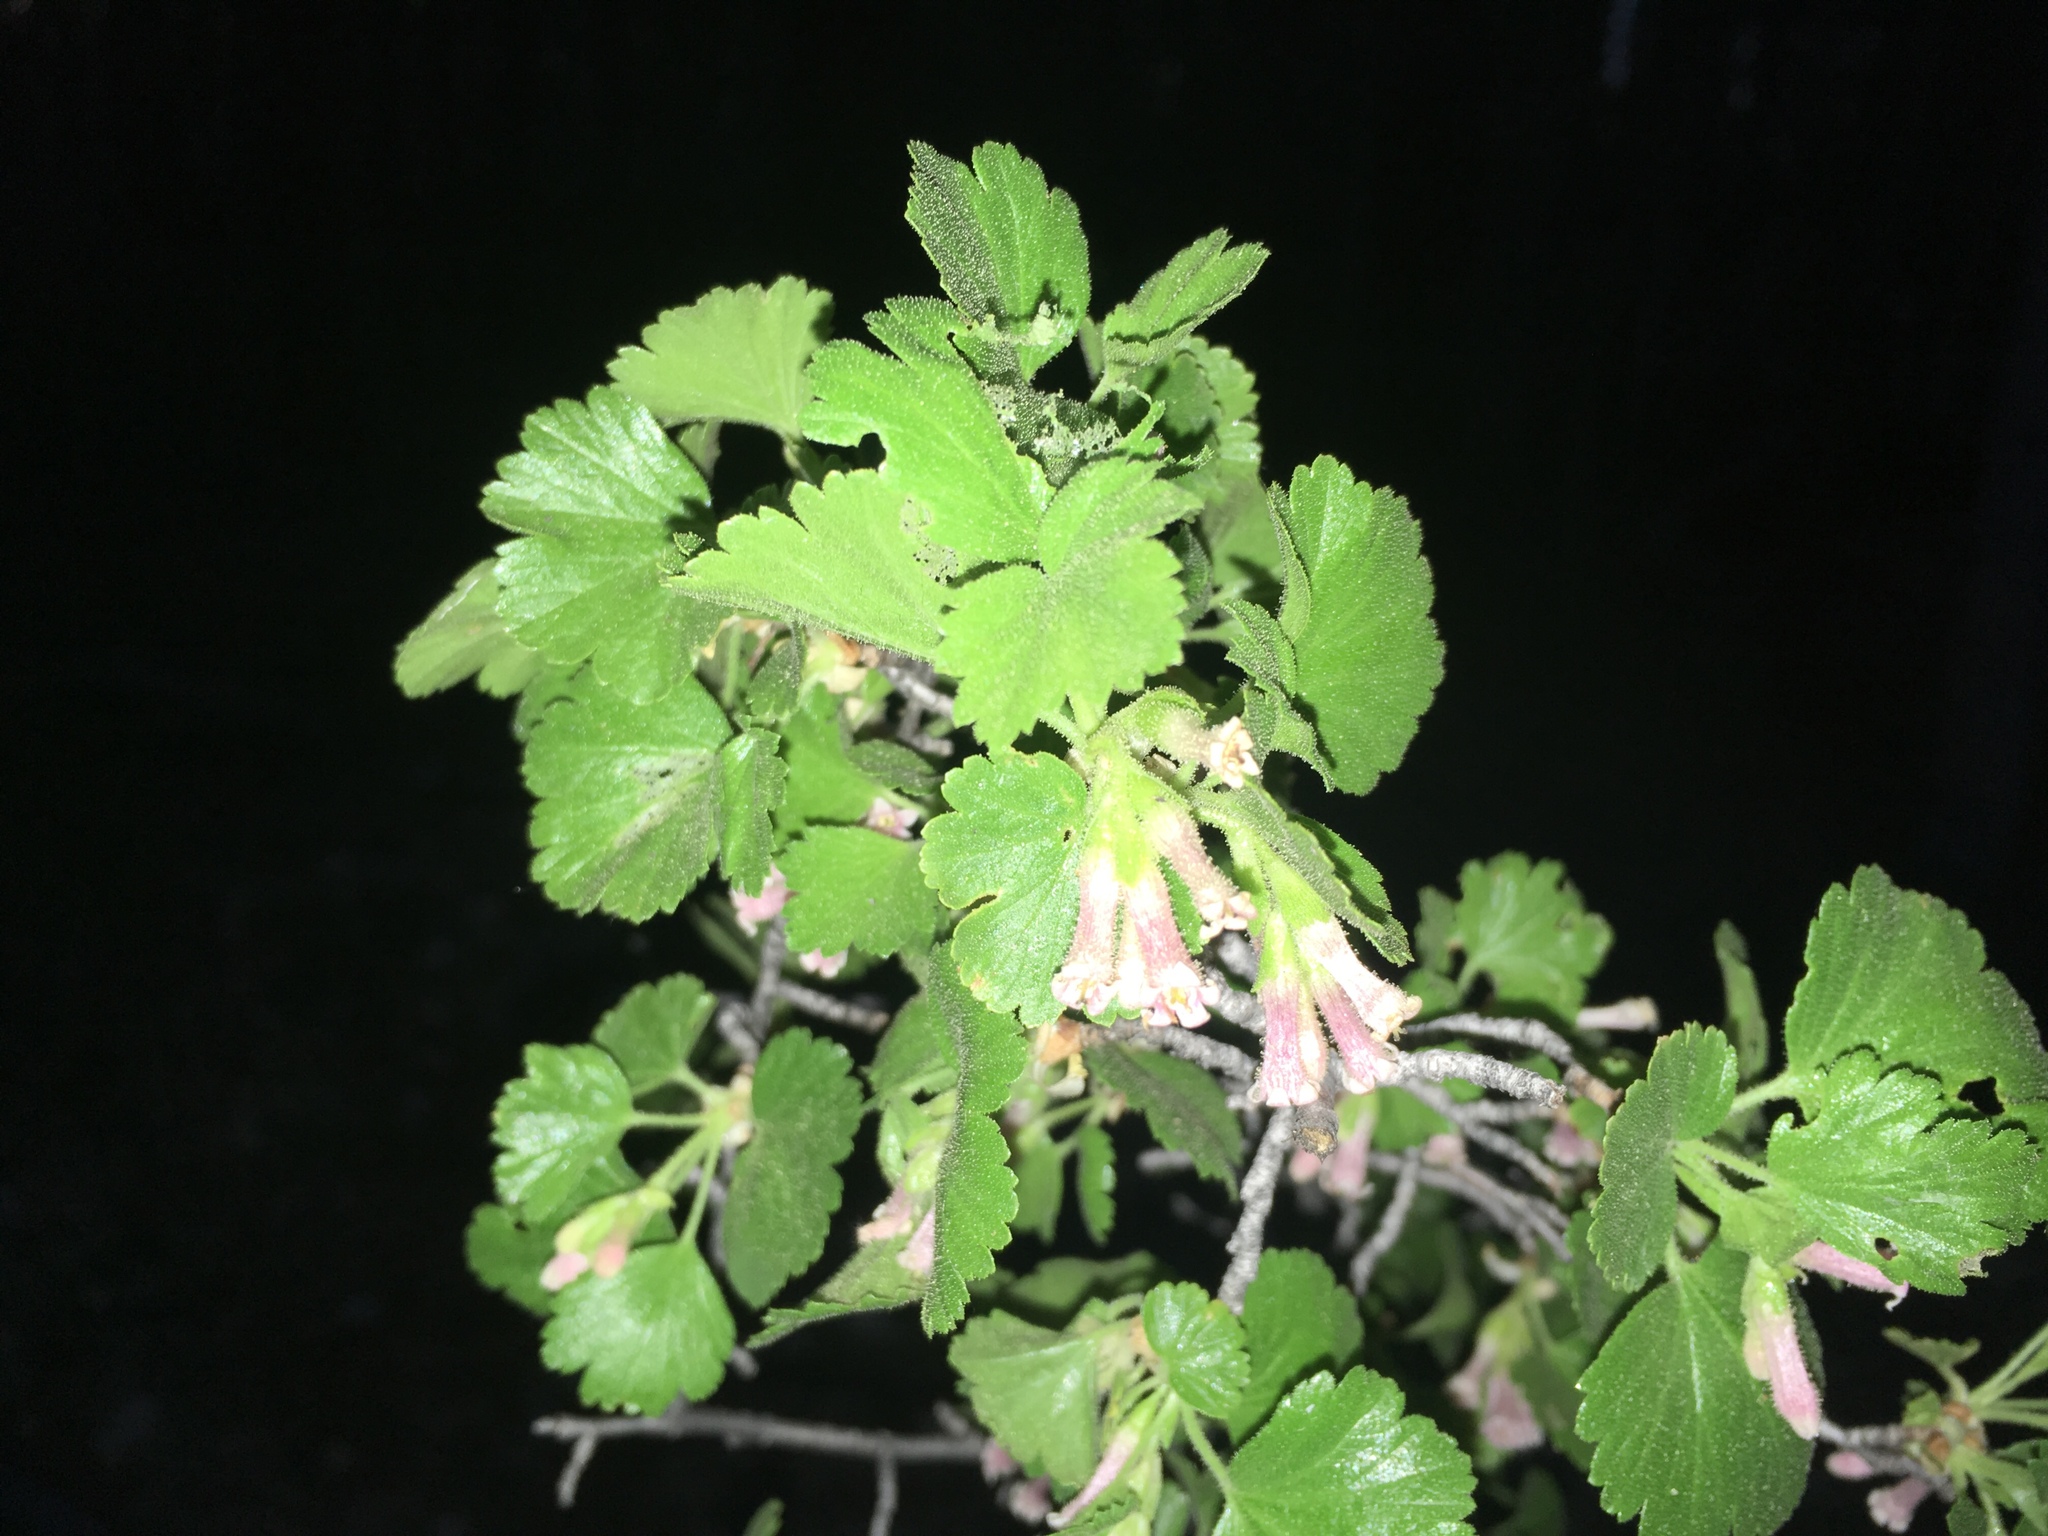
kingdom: Plantae
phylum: Tracheophyta
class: Magnoliopsida
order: Saxifragales
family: Grossulariaceae
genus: Ribes
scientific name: Ribes cereum
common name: Wax currant
